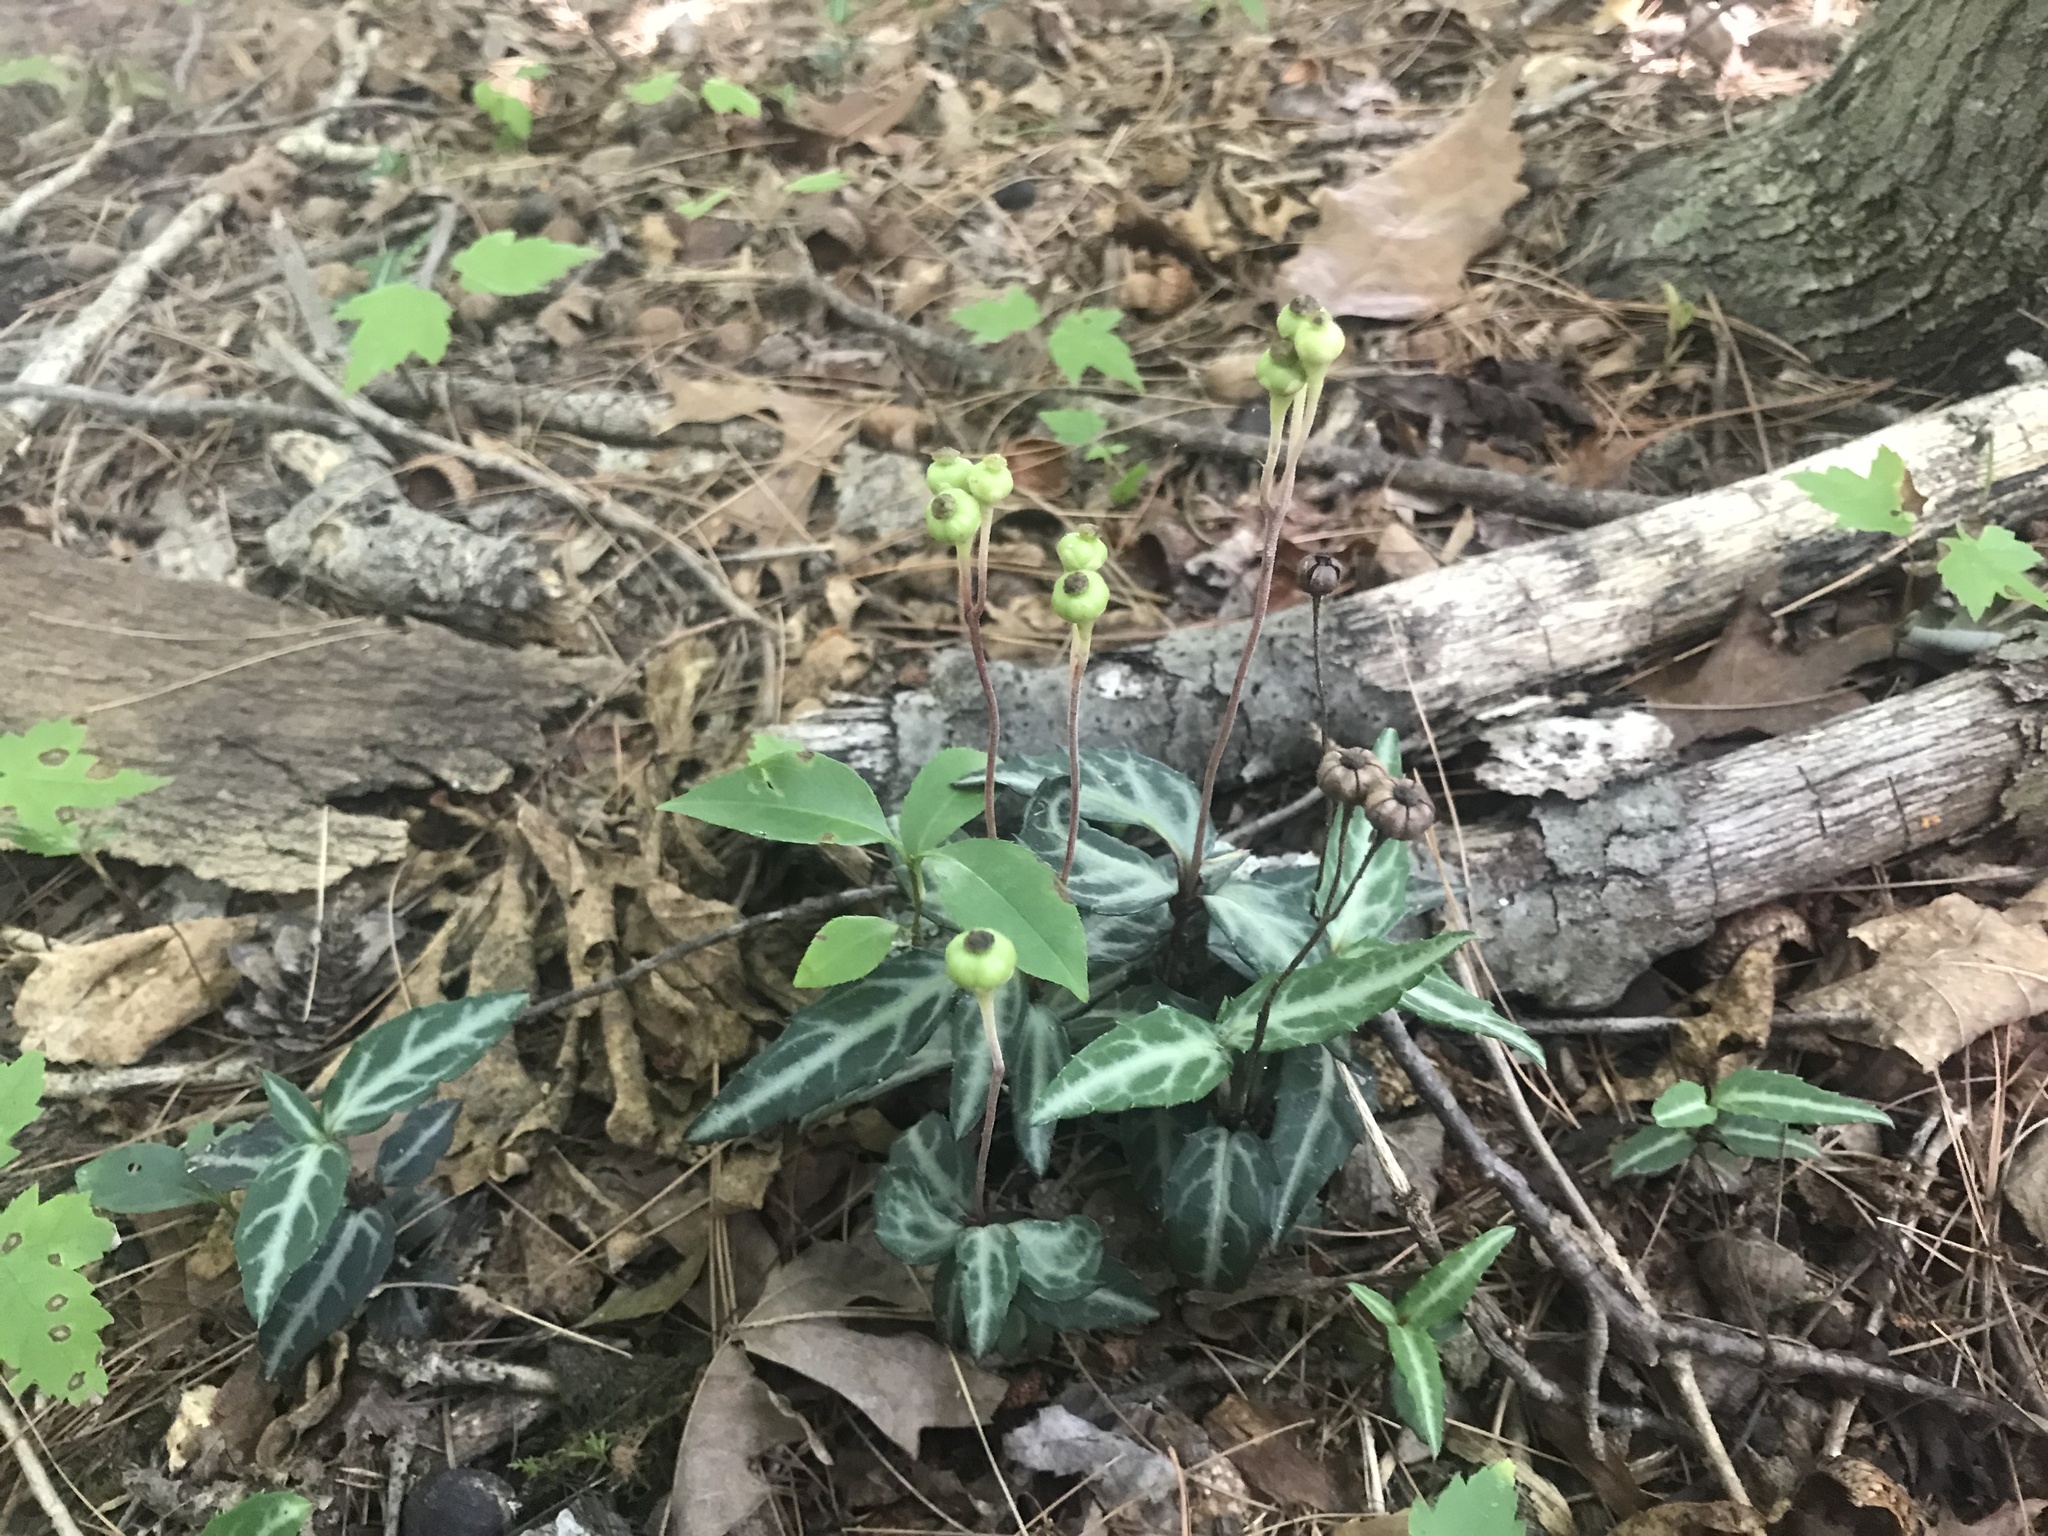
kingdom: Plantae
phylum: Tracheophyta
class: Magnoliopsida
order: Ericales
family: Ericaceae
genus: Chimaphila
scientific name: Chimaphila maculata
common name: Spotted pipsissewa
